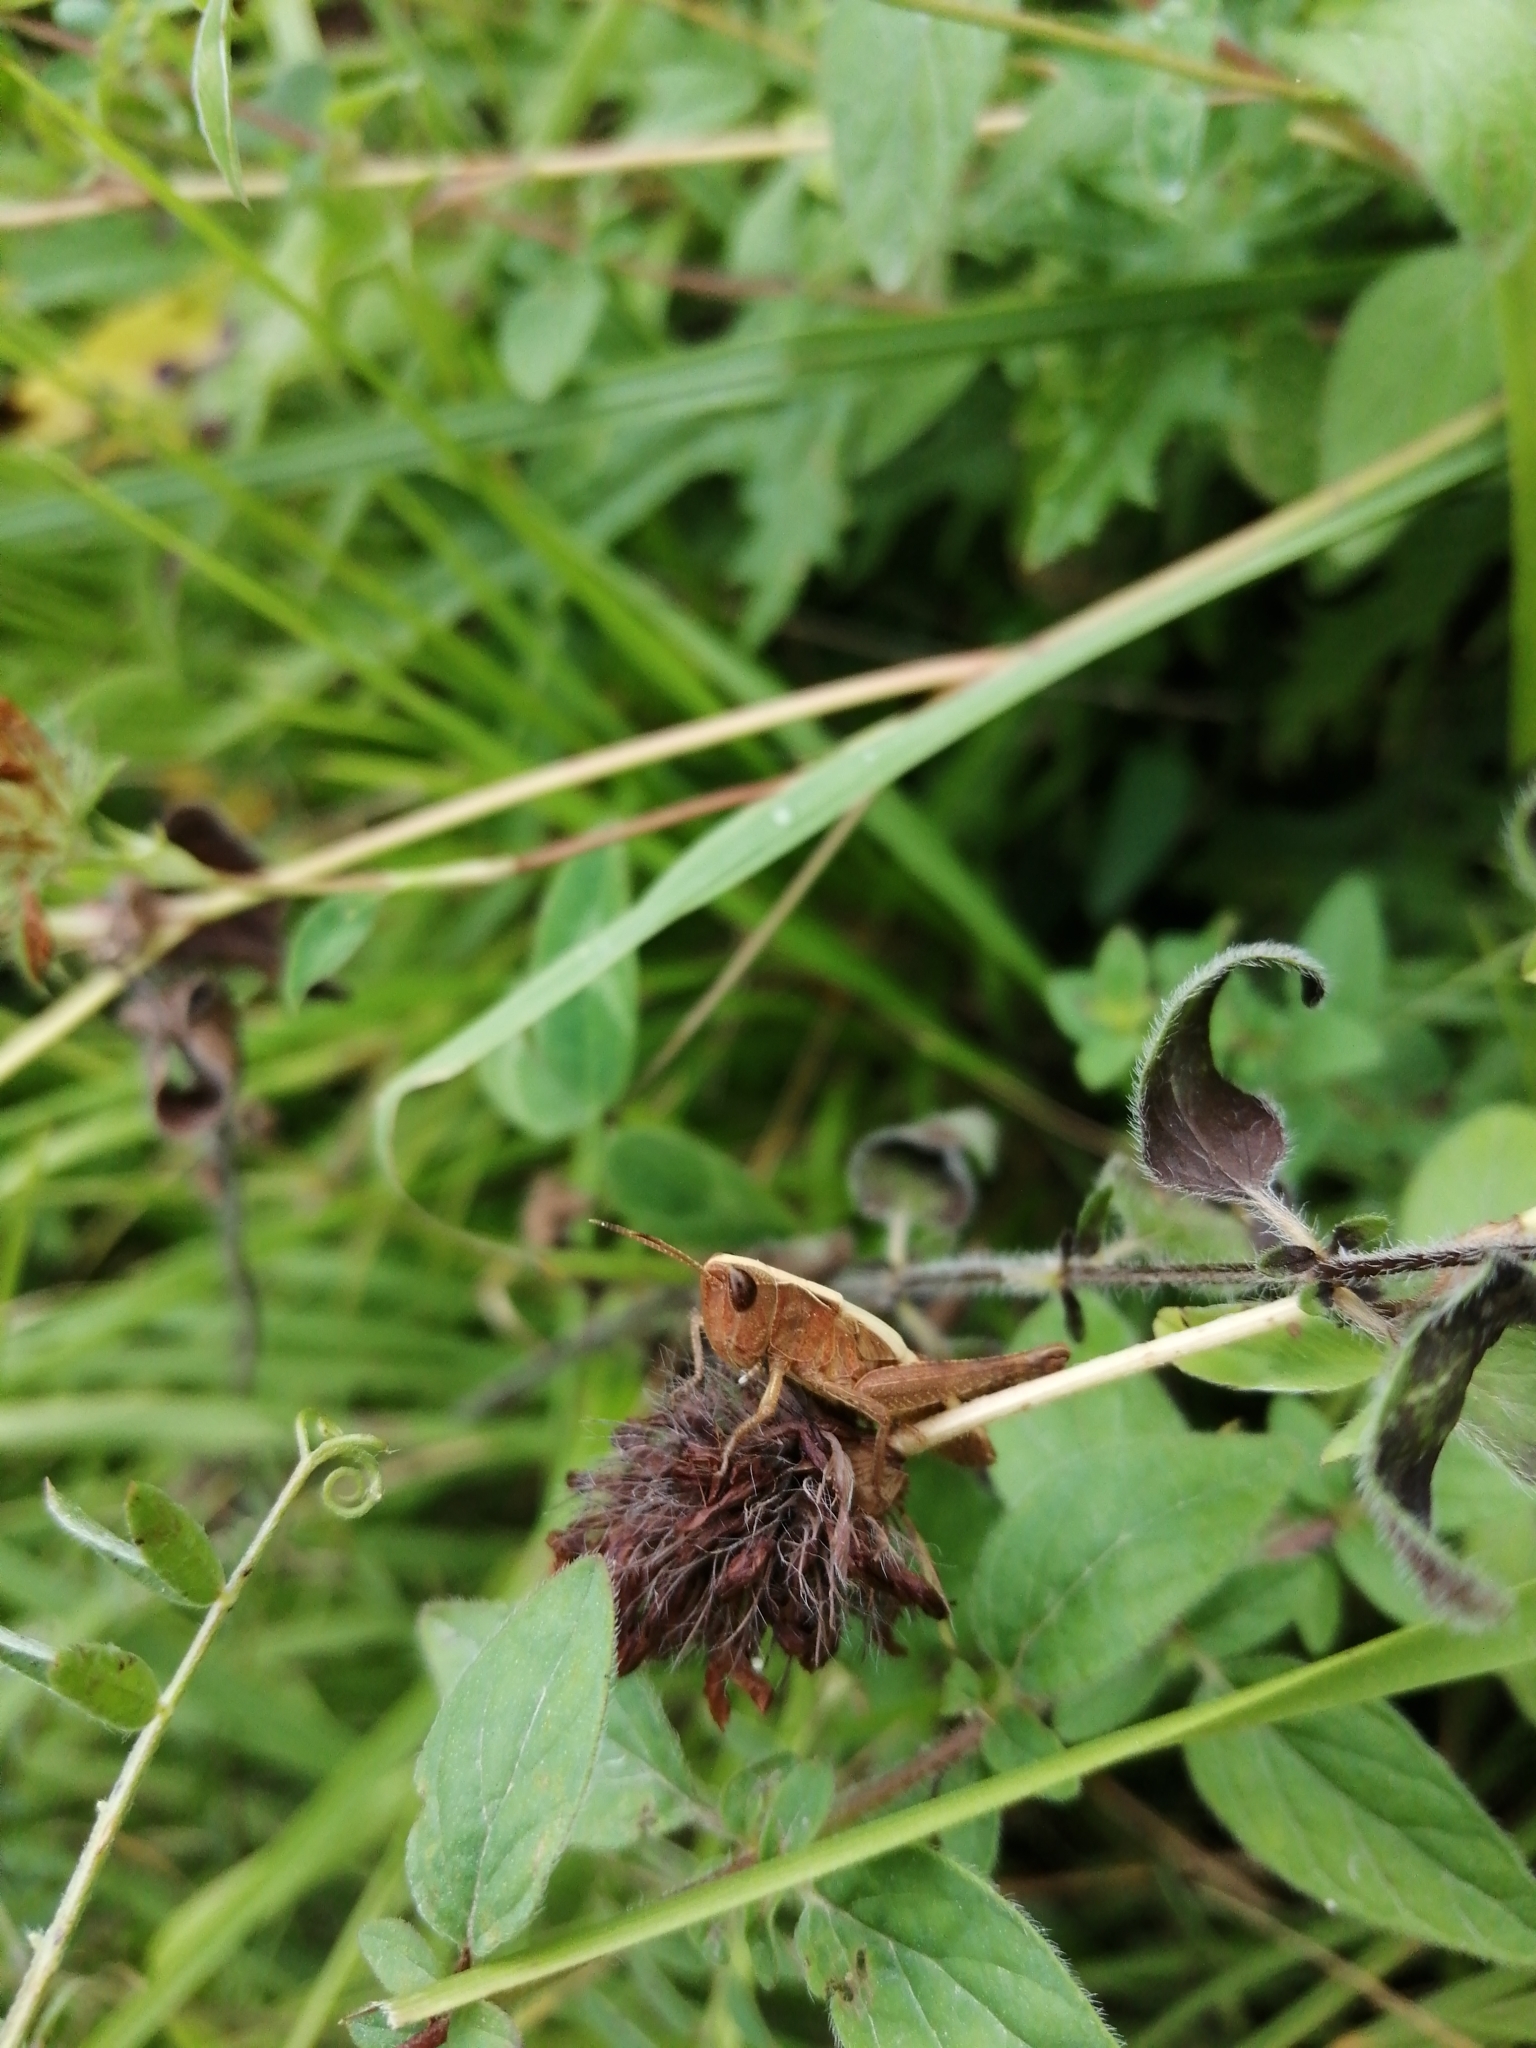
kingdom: Animalia
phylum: Arthropoda
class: Insecta
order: Orthoptera
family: Acrididae
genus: Gomphocerippus
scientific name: Gomphocerippus rufus
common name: Rufous grasshopper
